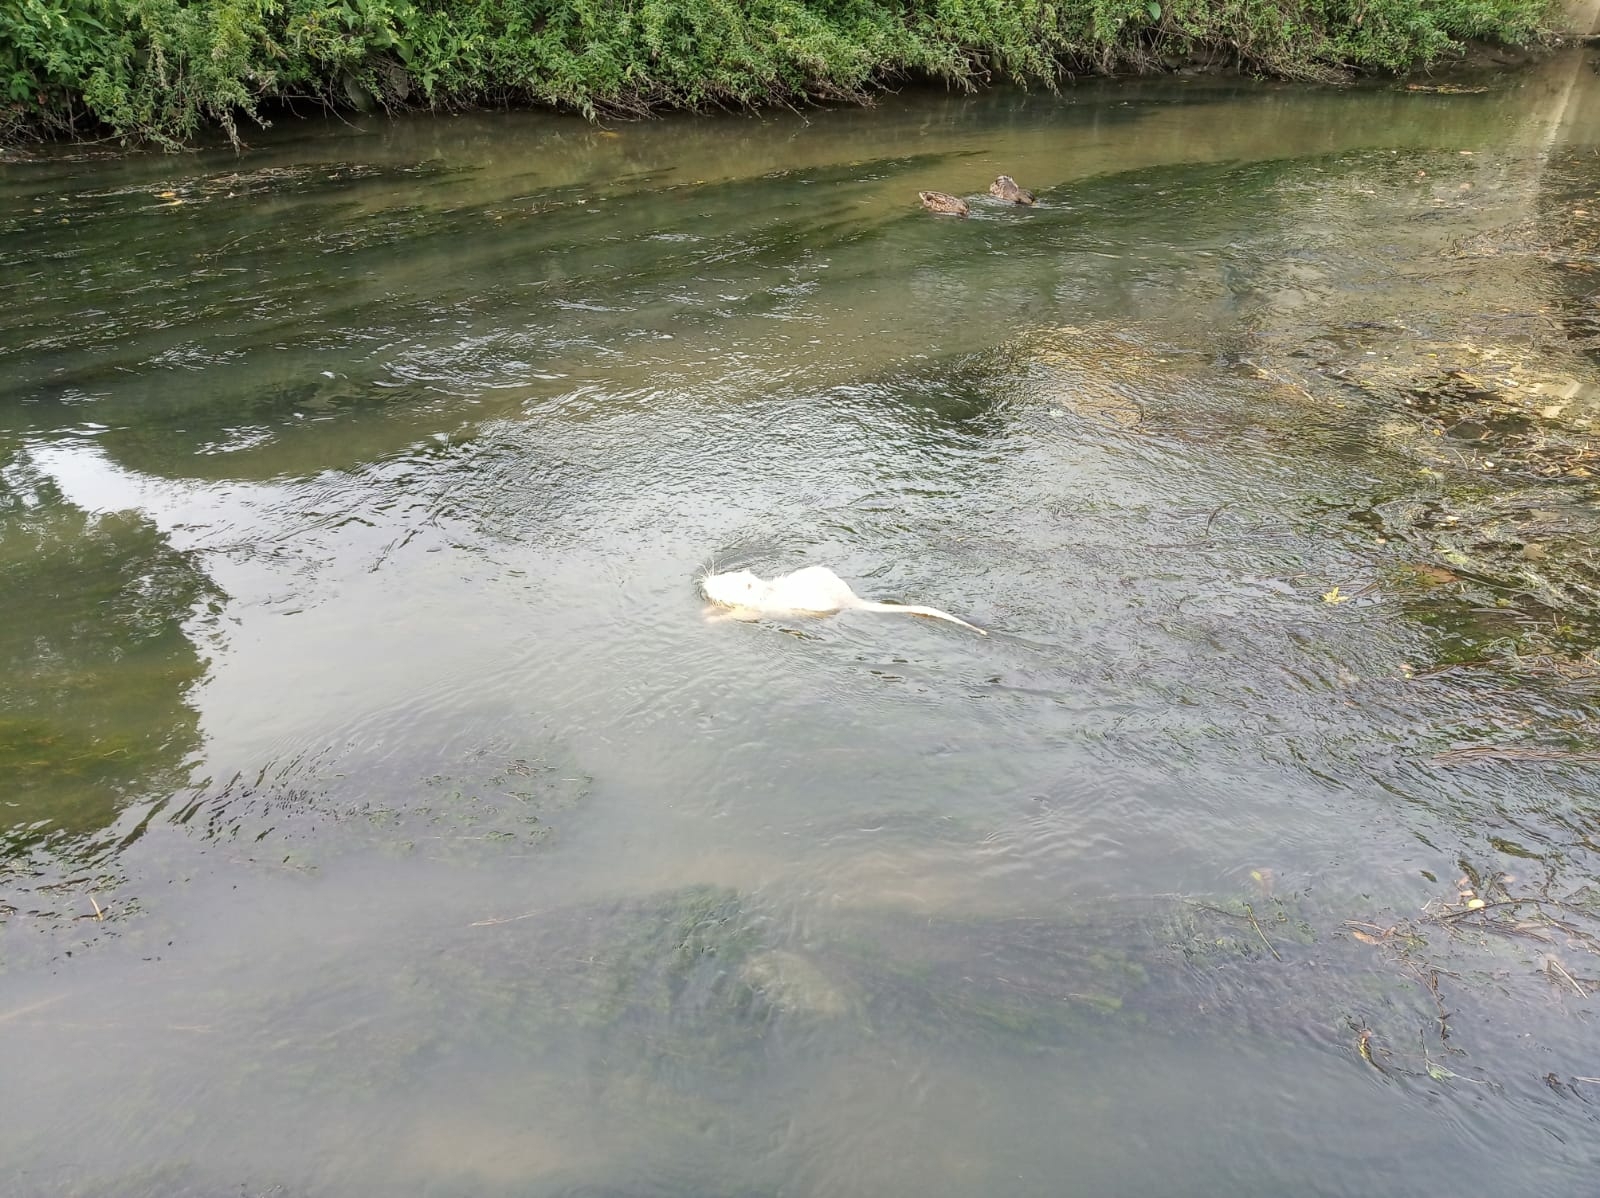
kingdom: Animalia
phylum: Chordata
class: Mammalia
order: Rodentia
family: Myocastoridae
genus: Myocastor
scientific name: Myocastor coypus
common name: Coypu
